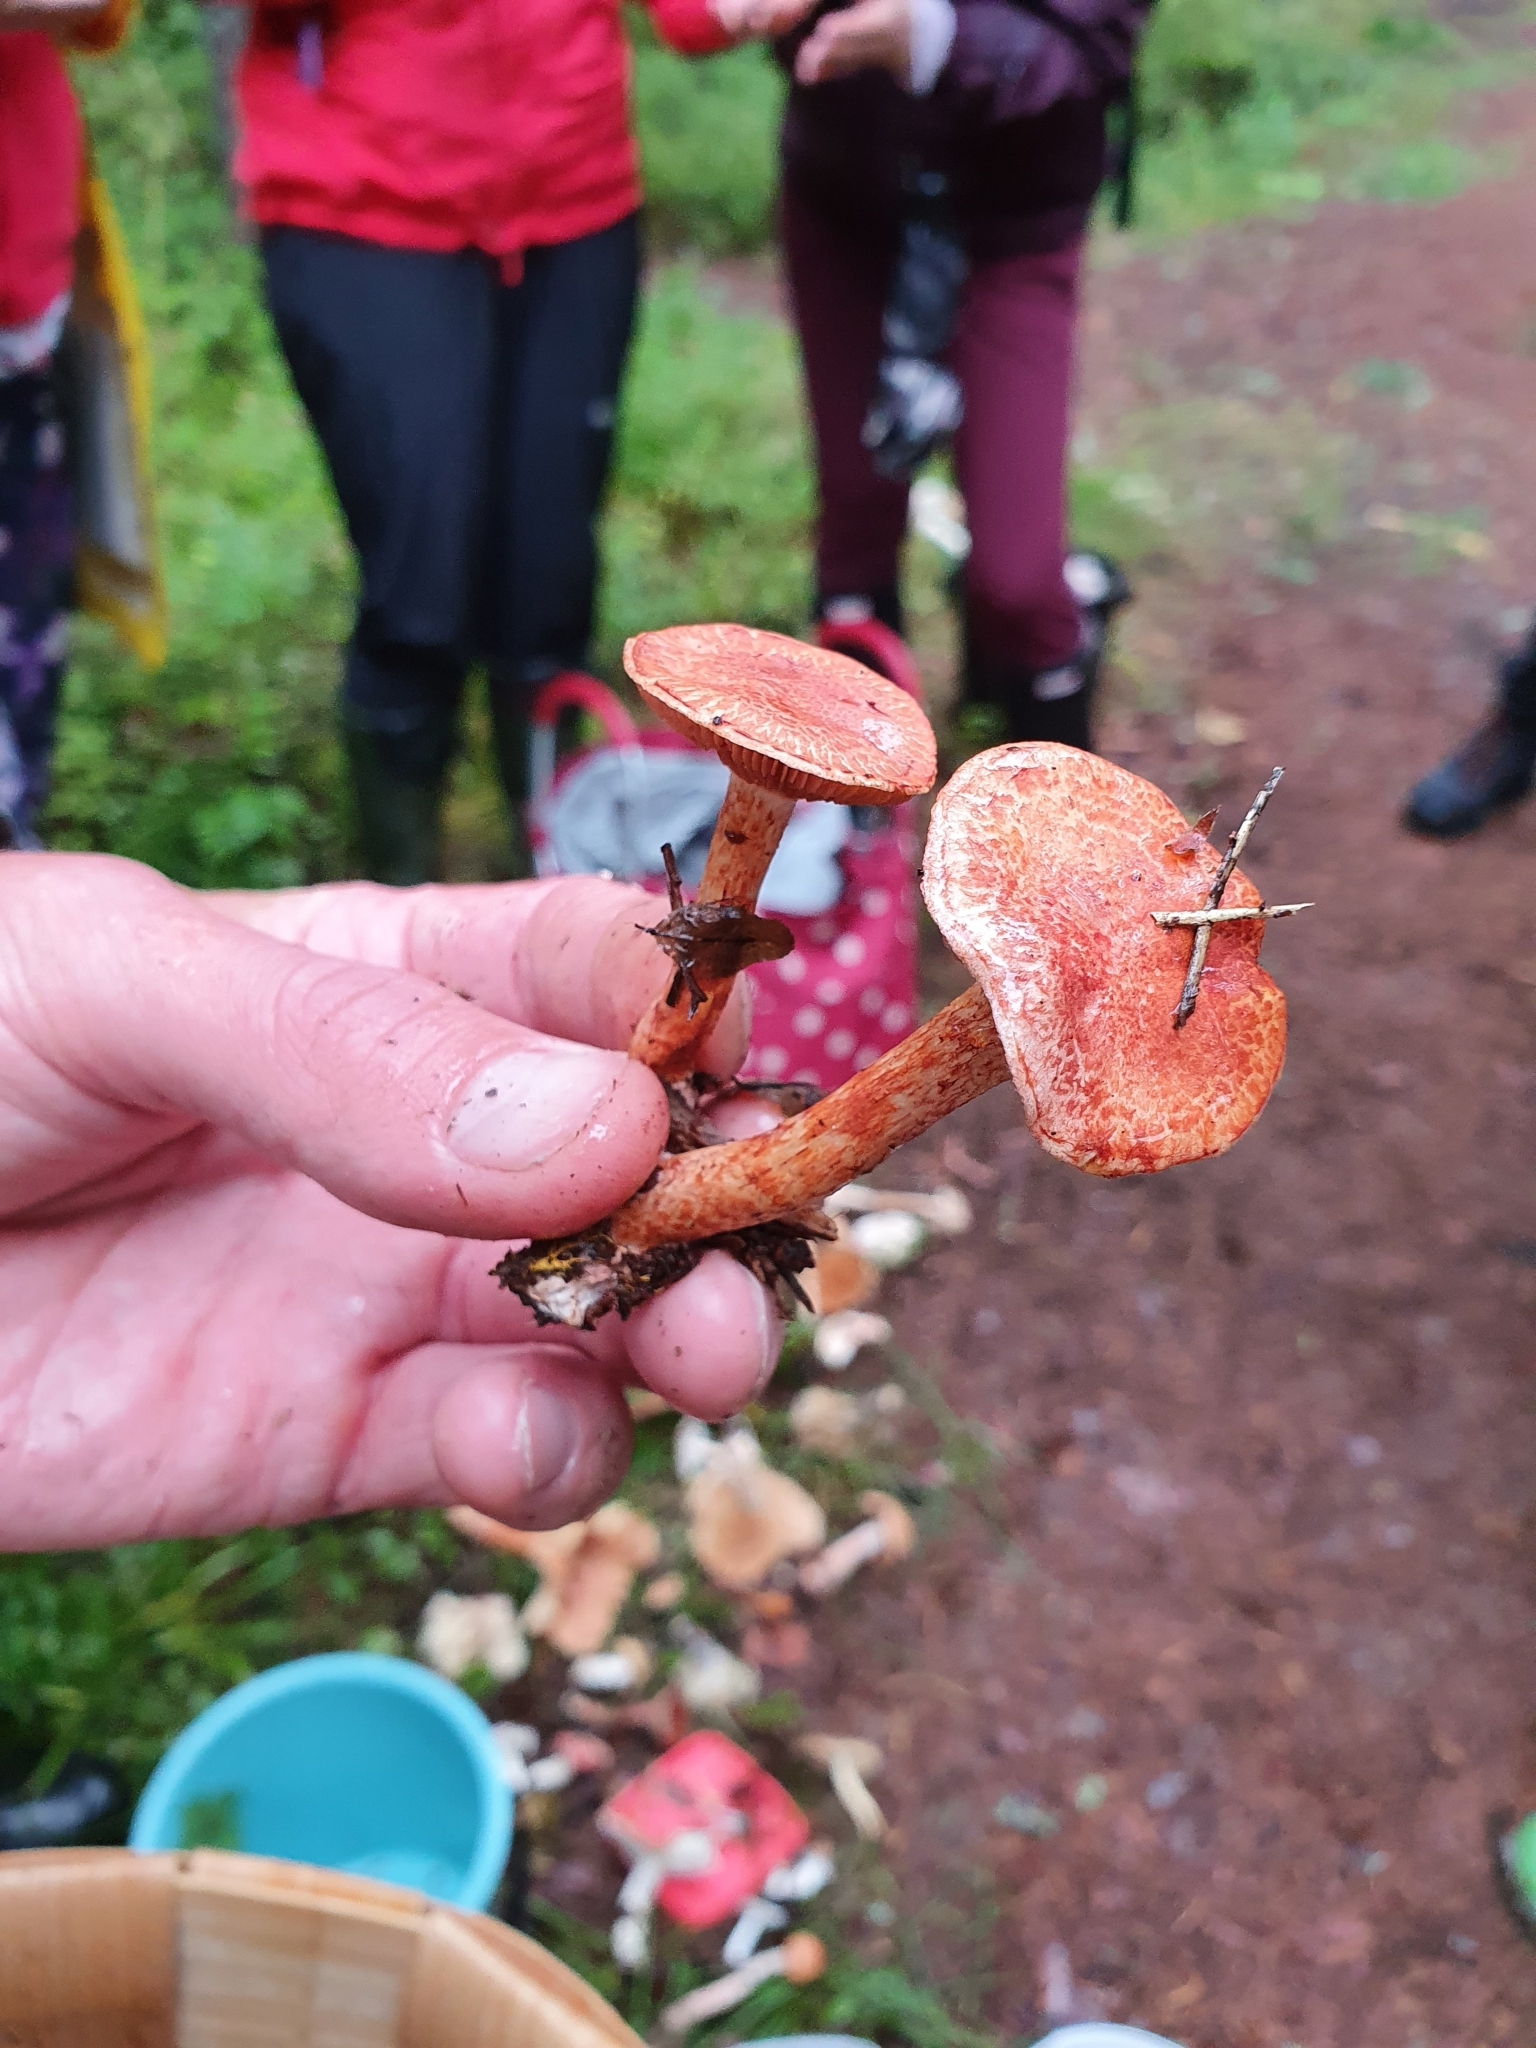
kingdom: Fungi
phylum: Basidiomycota
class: Agaricomycetes
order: Agaricales
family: Cortinariaceae
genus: Cortinarius
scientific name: Cortinarius bolaris
